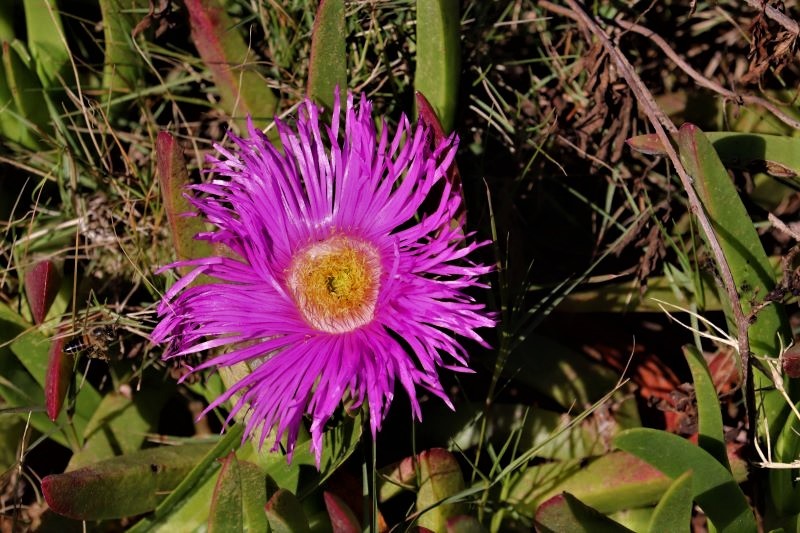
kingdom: Plantae
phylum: Tracheophyta
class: Magnoliopsida
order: Caryophyllales
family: Aizoaceae
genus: Carpobrotus
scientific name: Carpobrotus deliciosus
